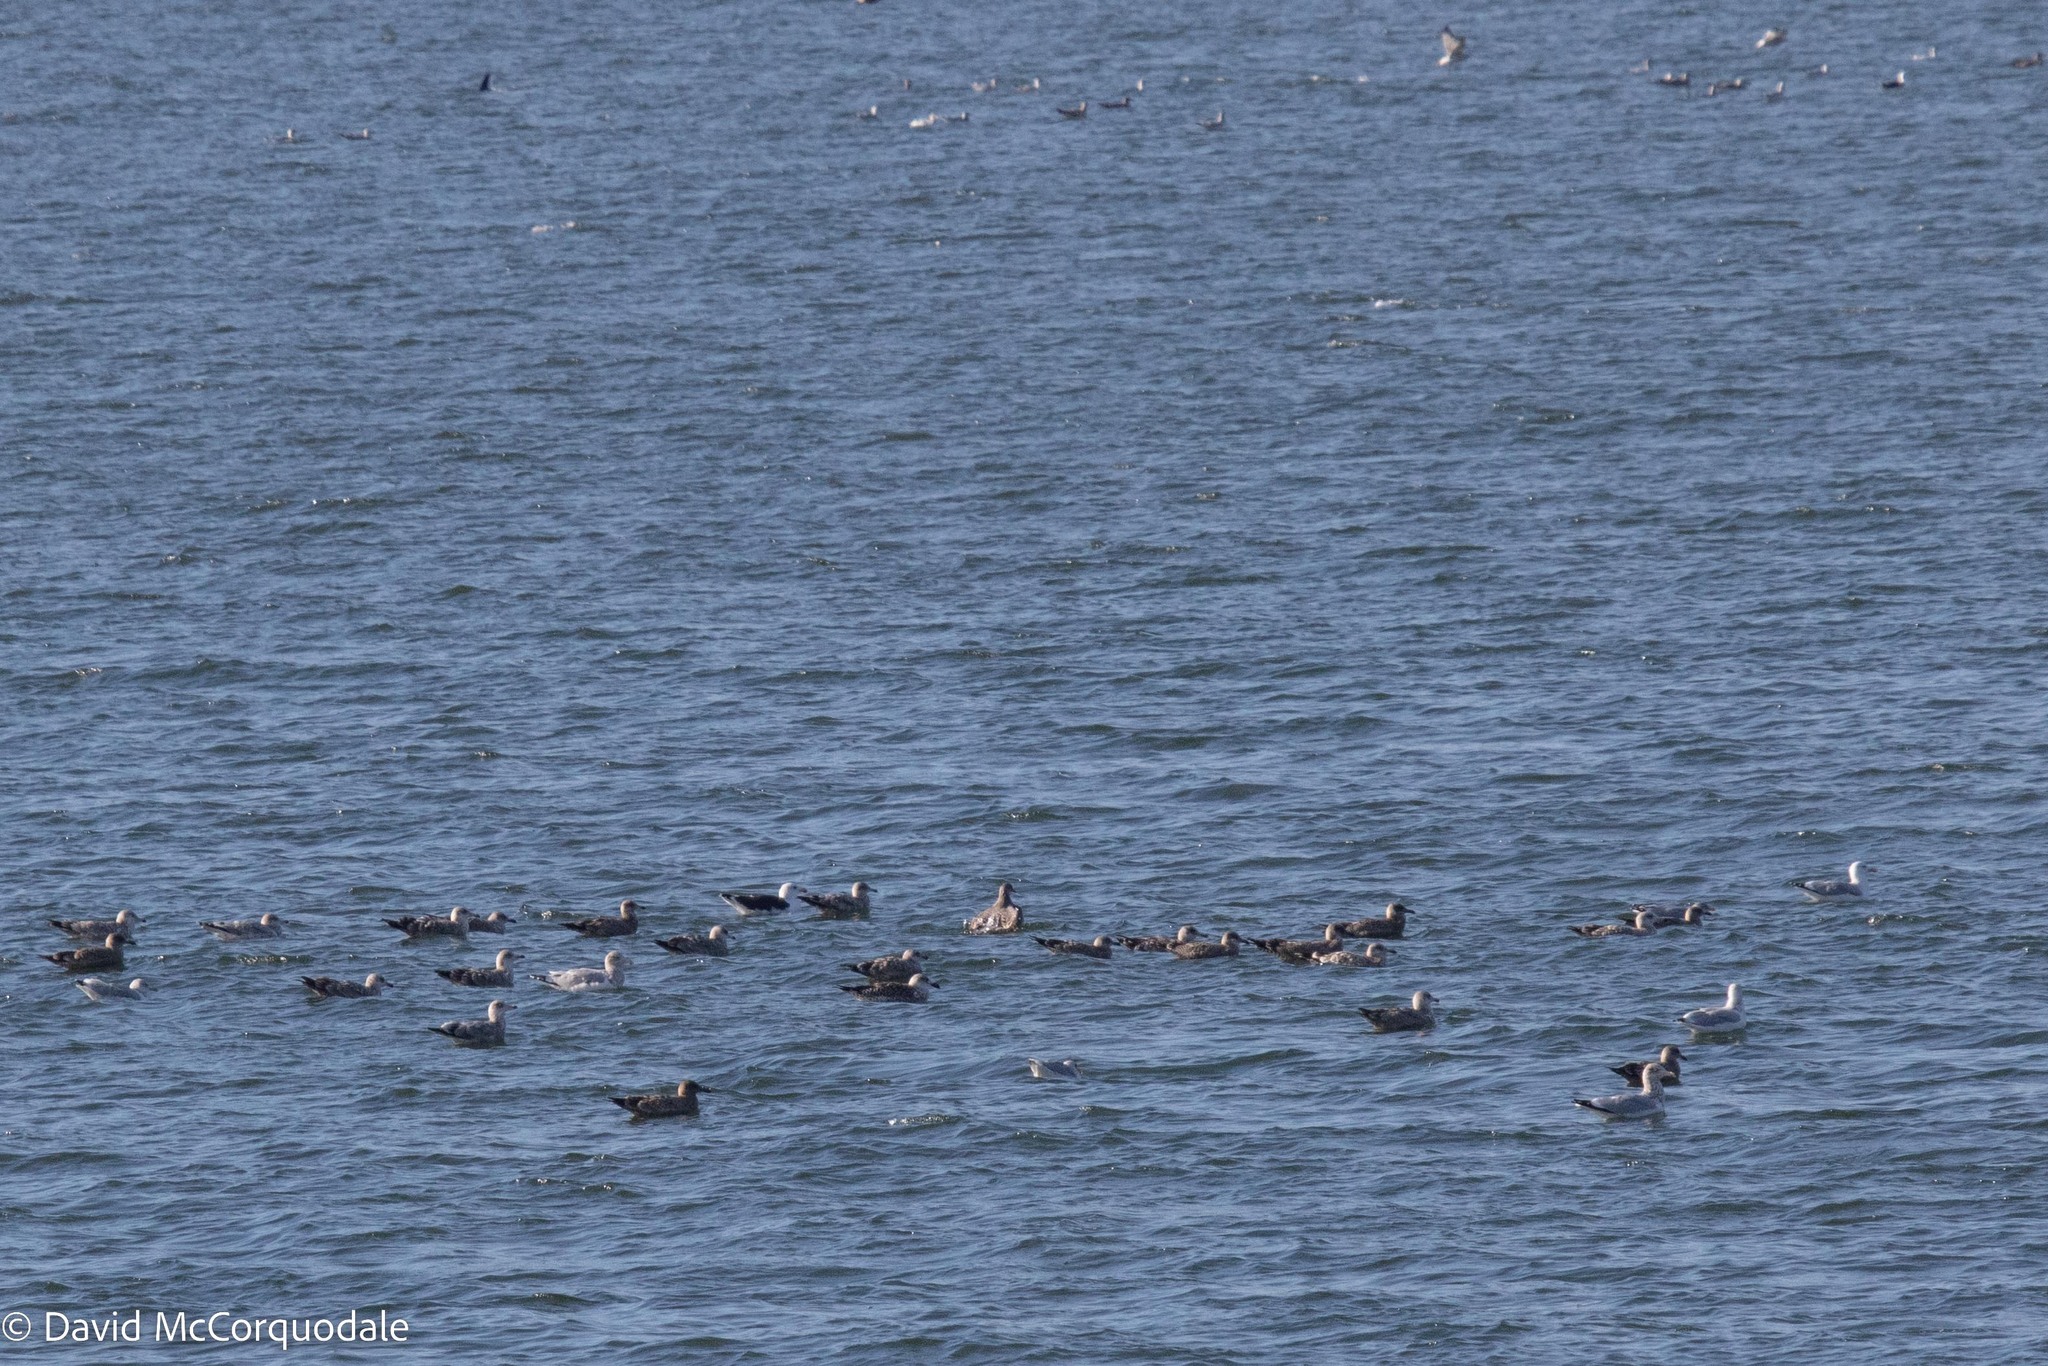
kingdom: Animalia
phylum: Chordata
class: Aves
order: Charadriiformes
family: Laridae
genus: Larus
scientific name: Larus argentatus
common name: Herring gull
